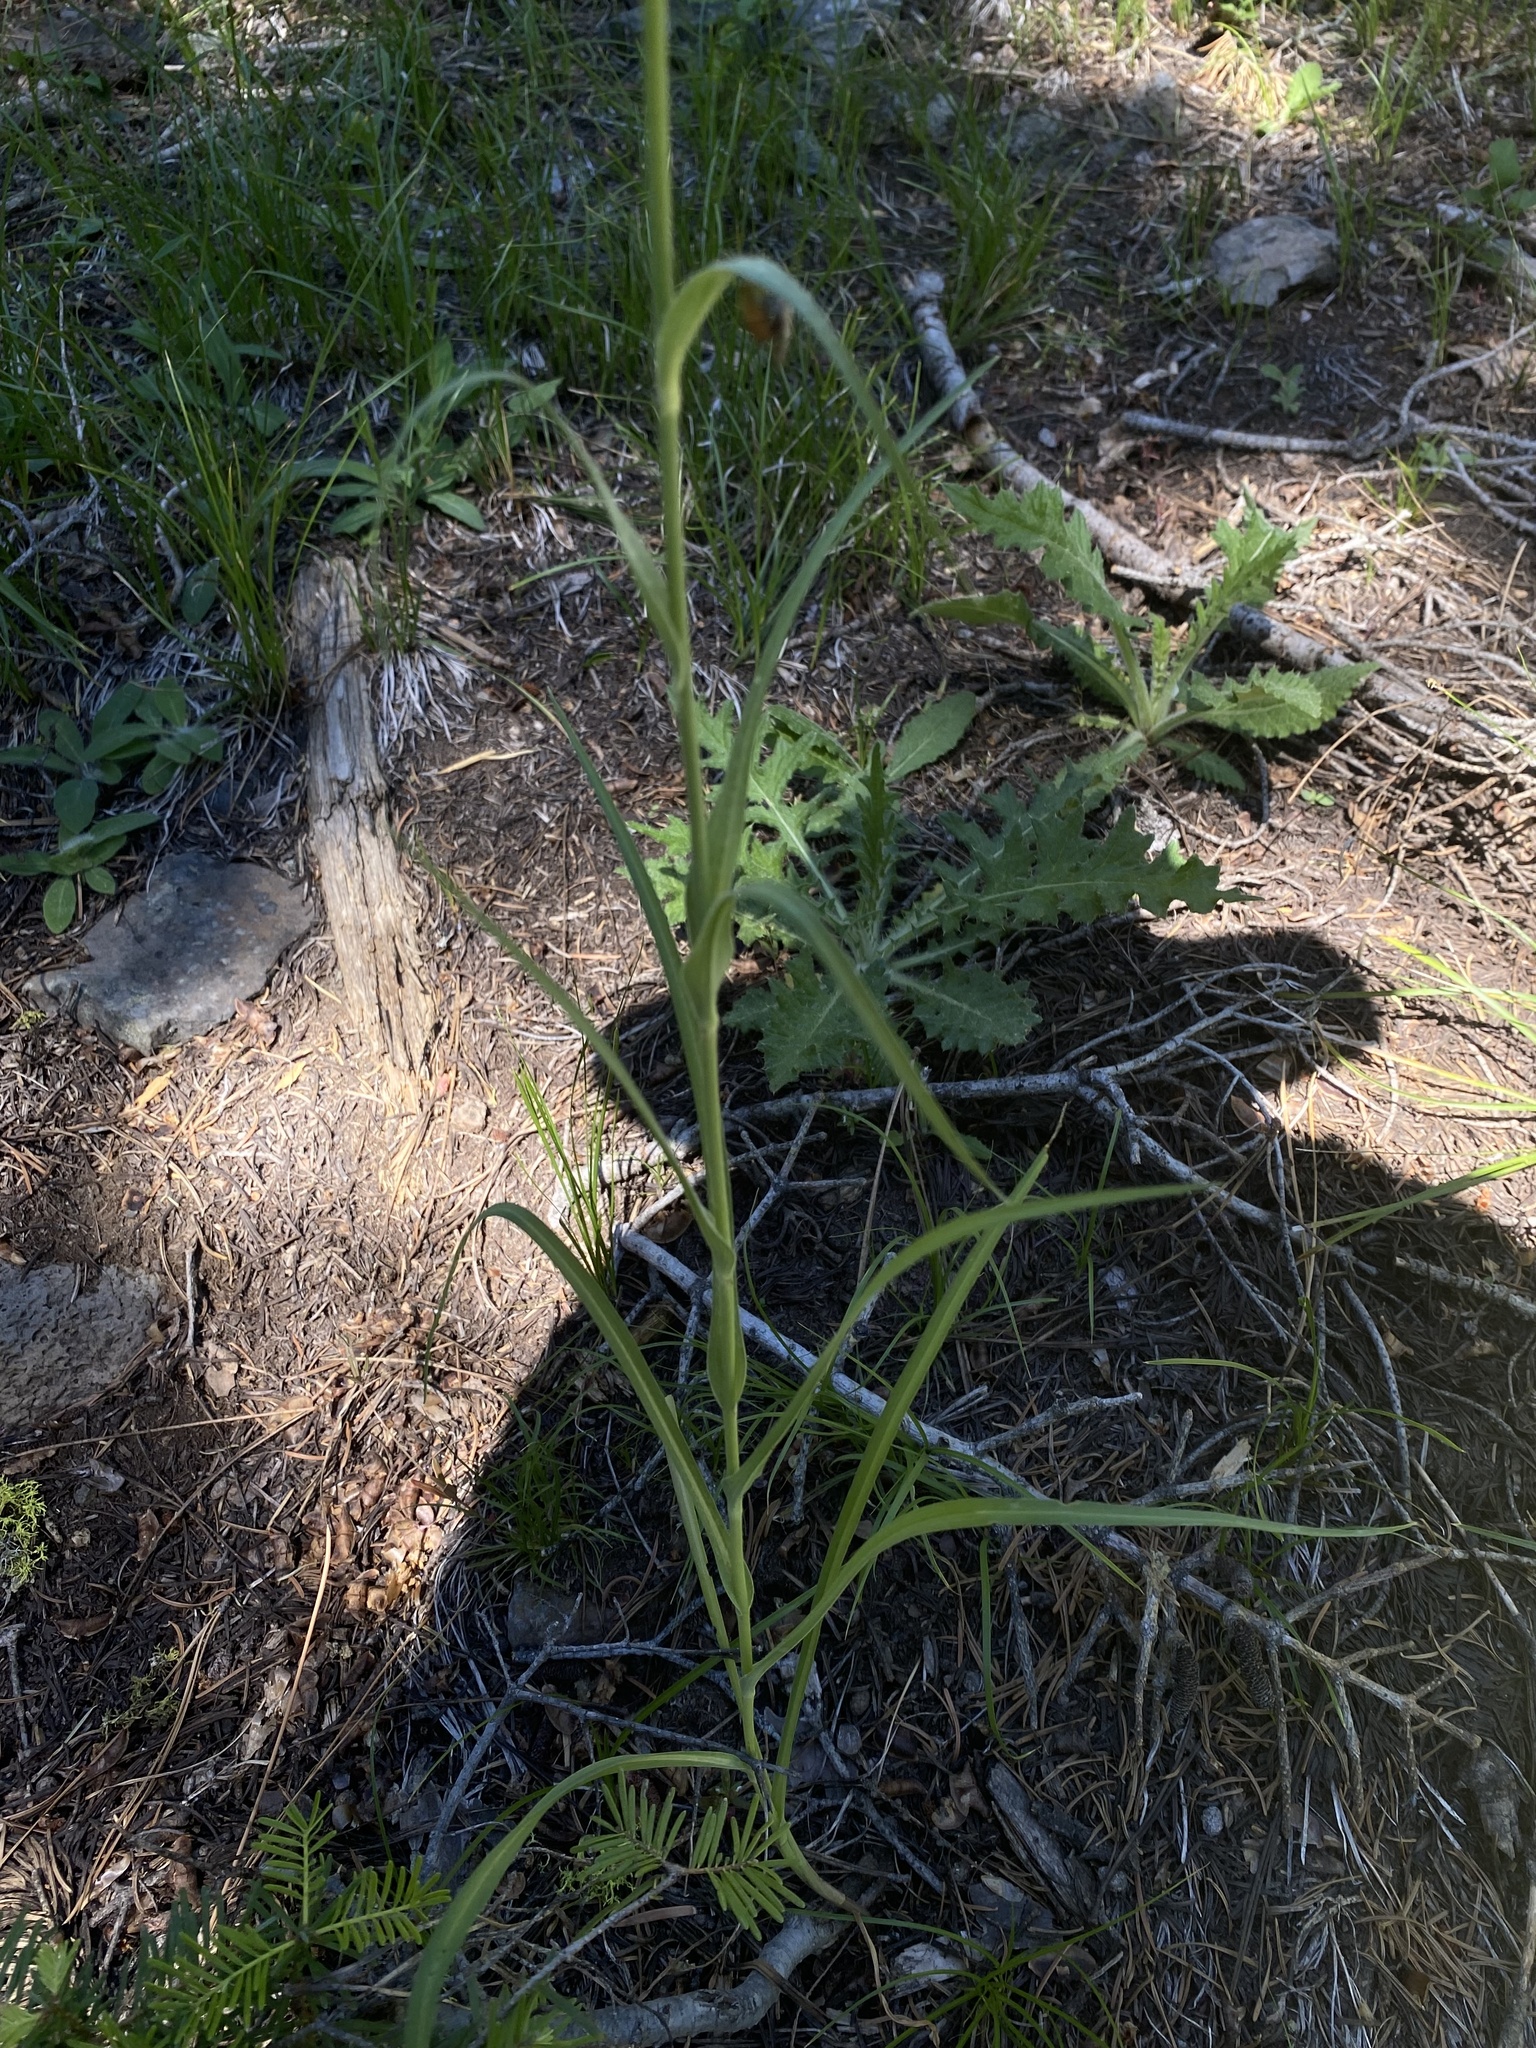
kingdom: Plantae
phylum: Tracheophyta
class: Magnoliopsida
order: Asterales
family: Asteraceae
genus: Tragopogon
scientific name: Tragopogon dubius
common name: Yellow salsify
